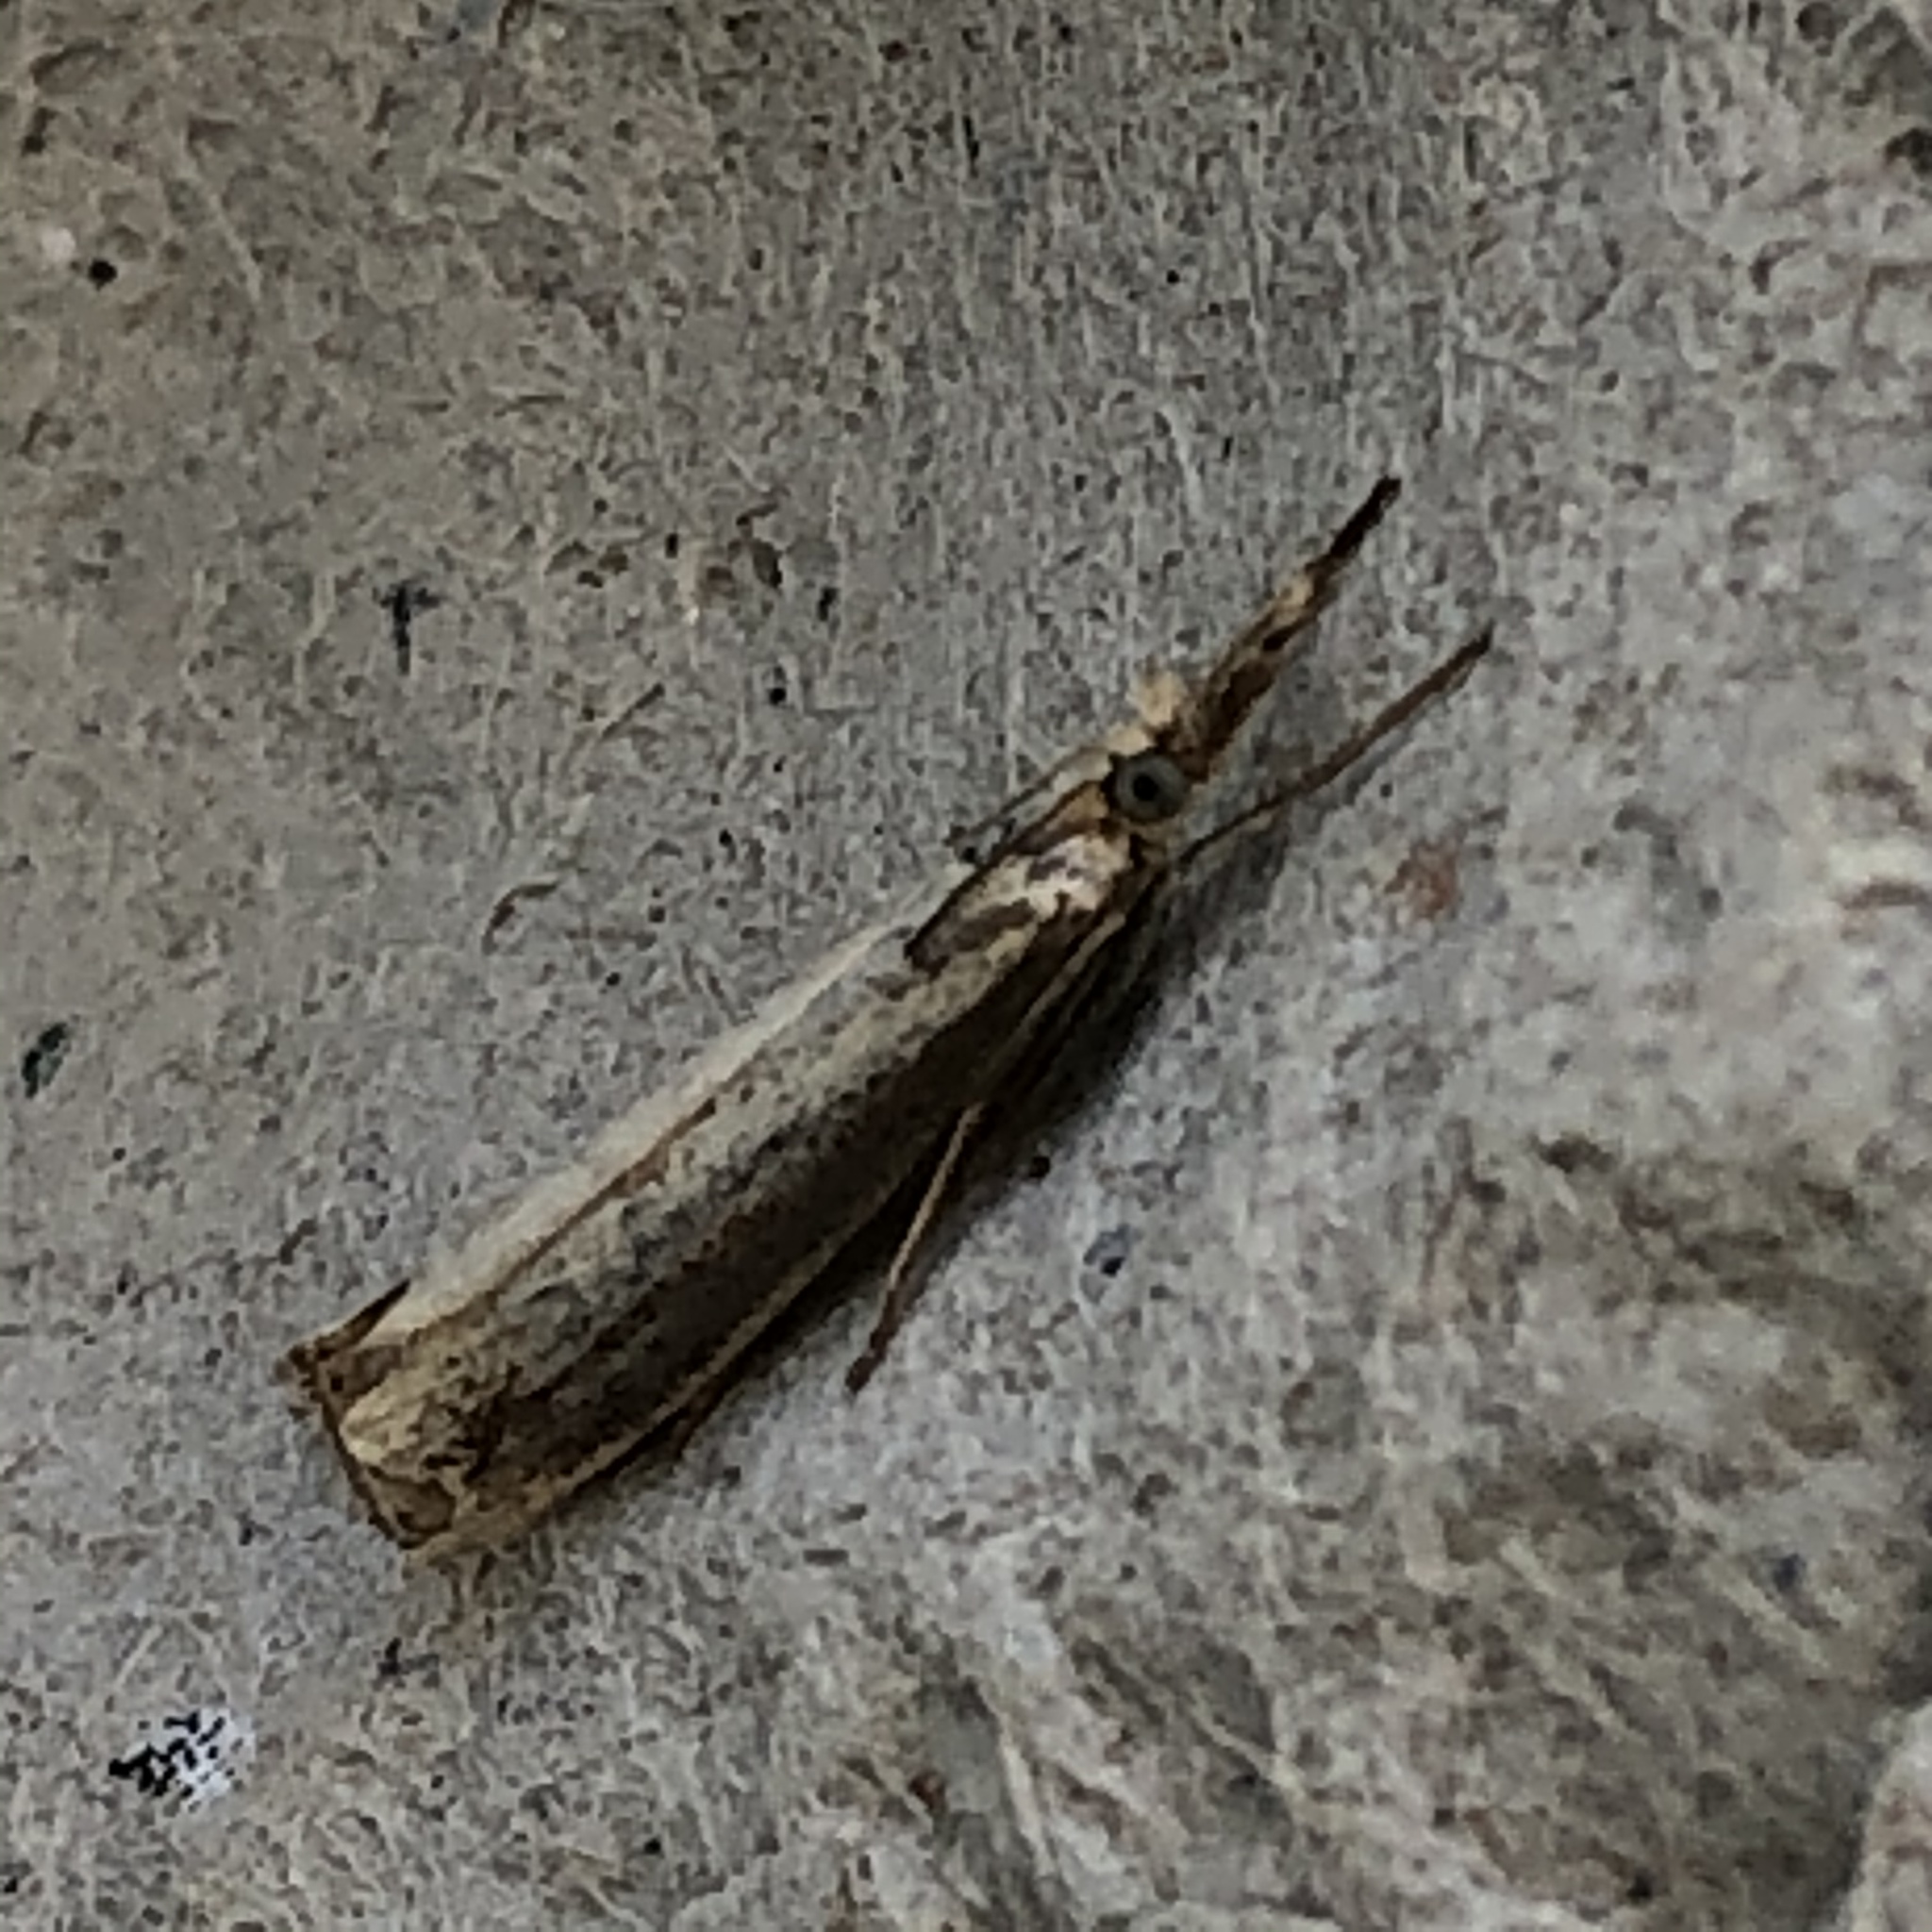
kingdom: Animalia
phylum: Arthropoda
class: Insecta
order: Lepidoptera
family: Crambidae
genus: Chrysoteuchia
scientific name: Chrysoteuchia culmella
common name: Garden grass-veneer
